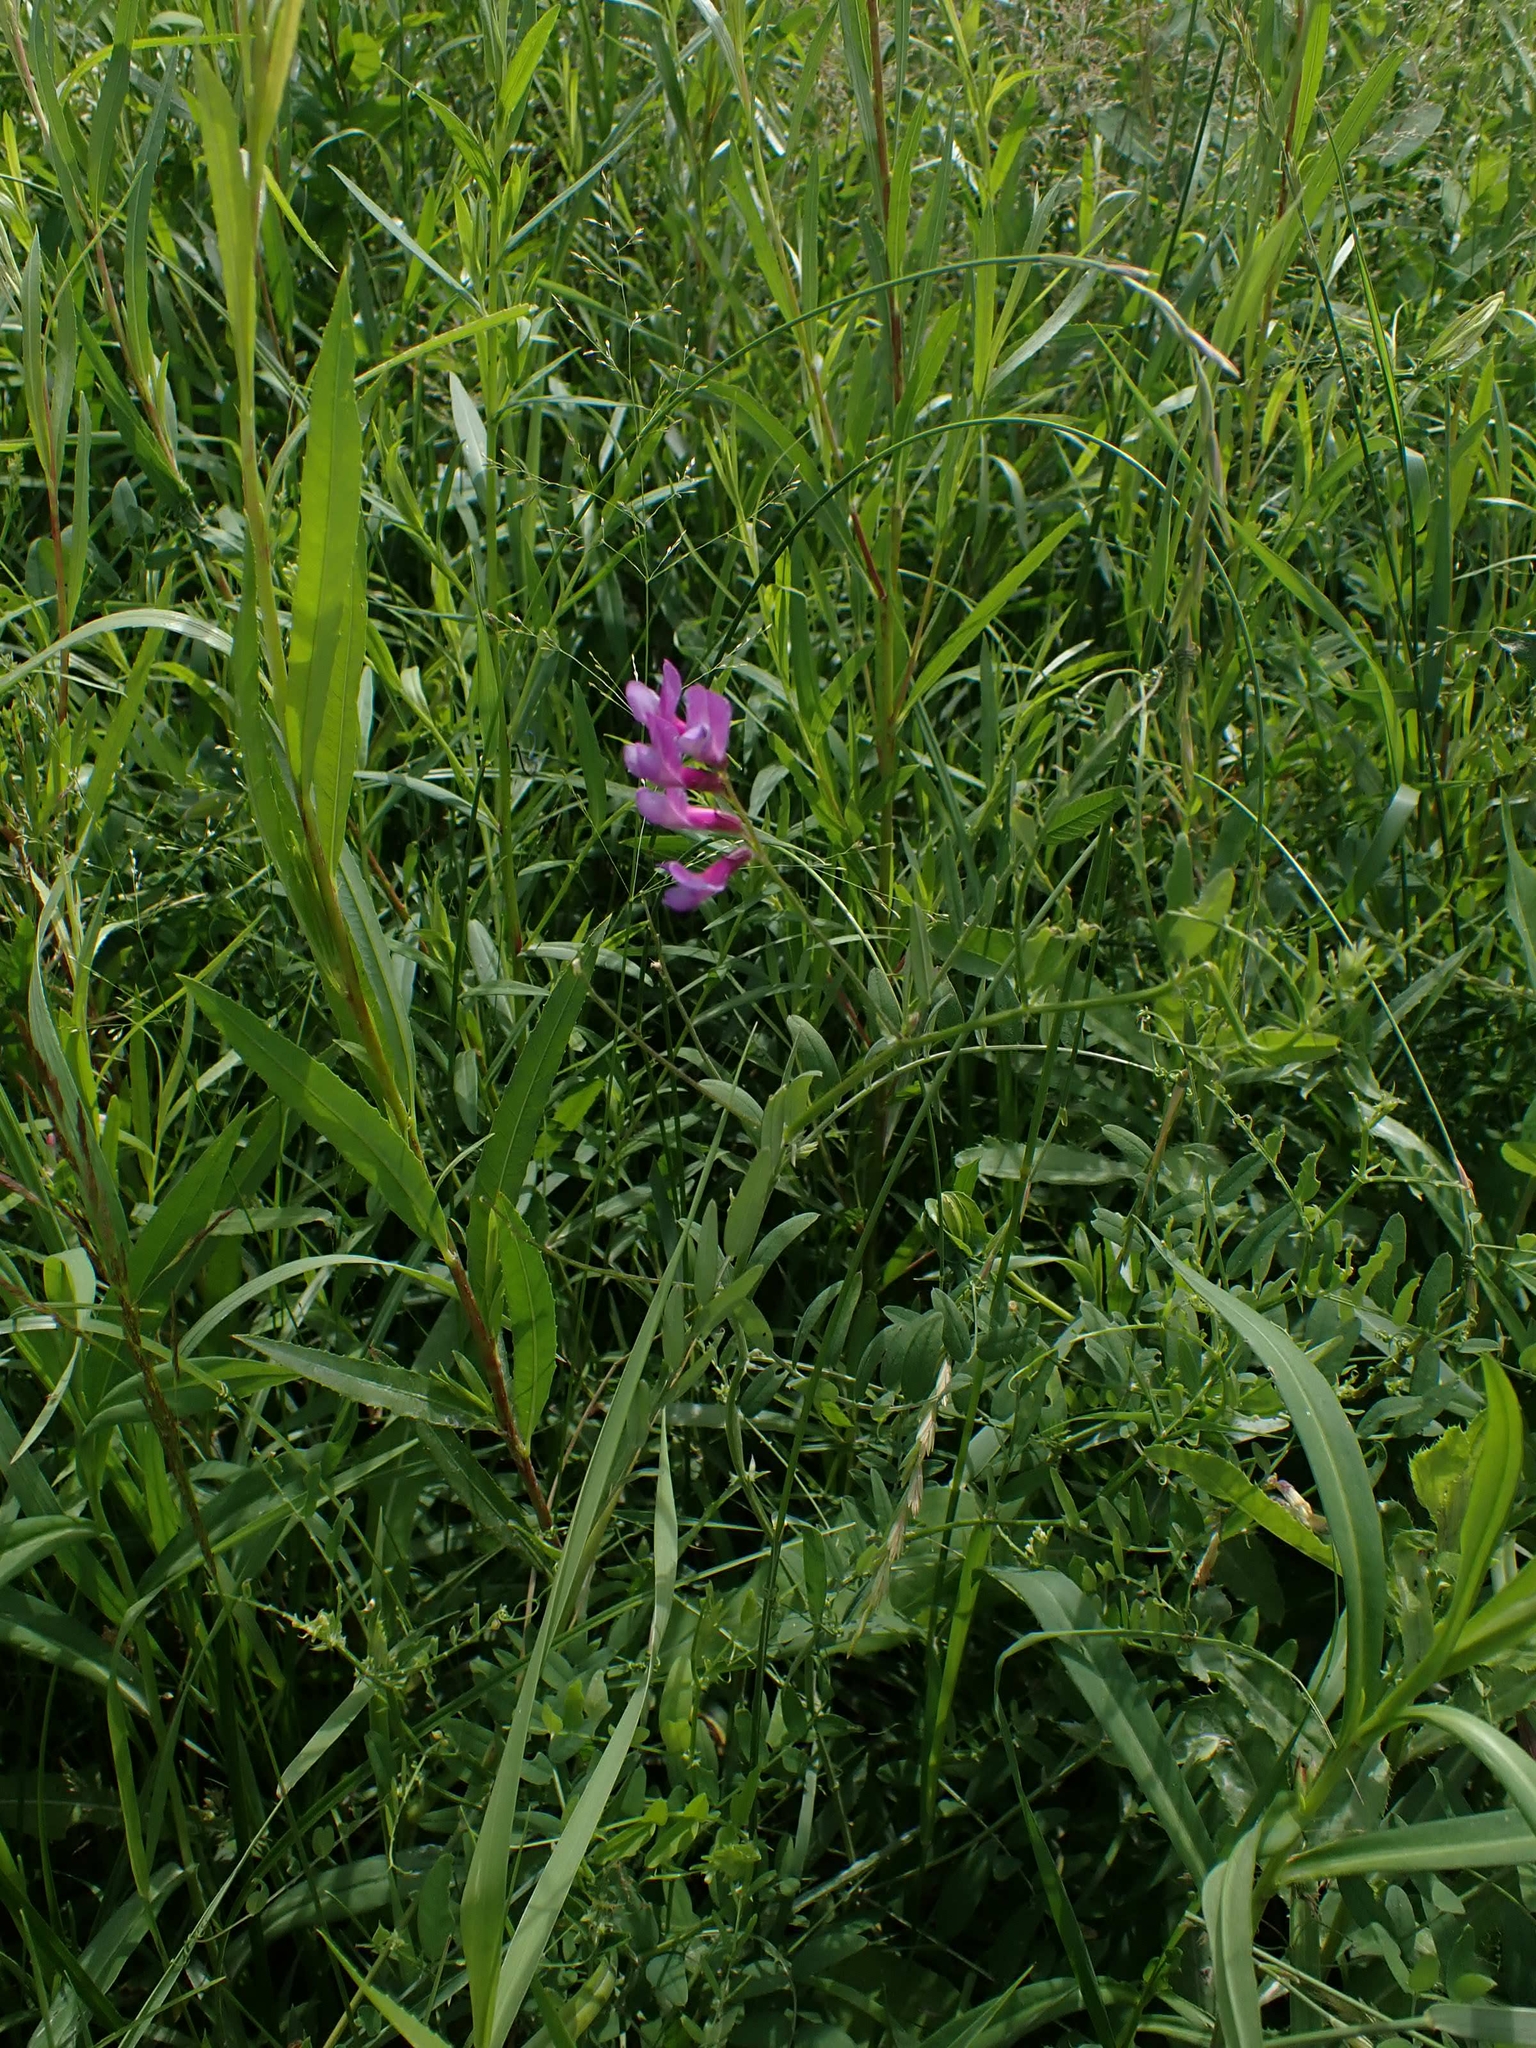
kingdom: Plantae
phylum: Tracheophyta
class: Magnoliopsida
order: Fabales
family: Fabaceae
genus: Vicia
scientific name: Vicia americana
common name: American vetch
